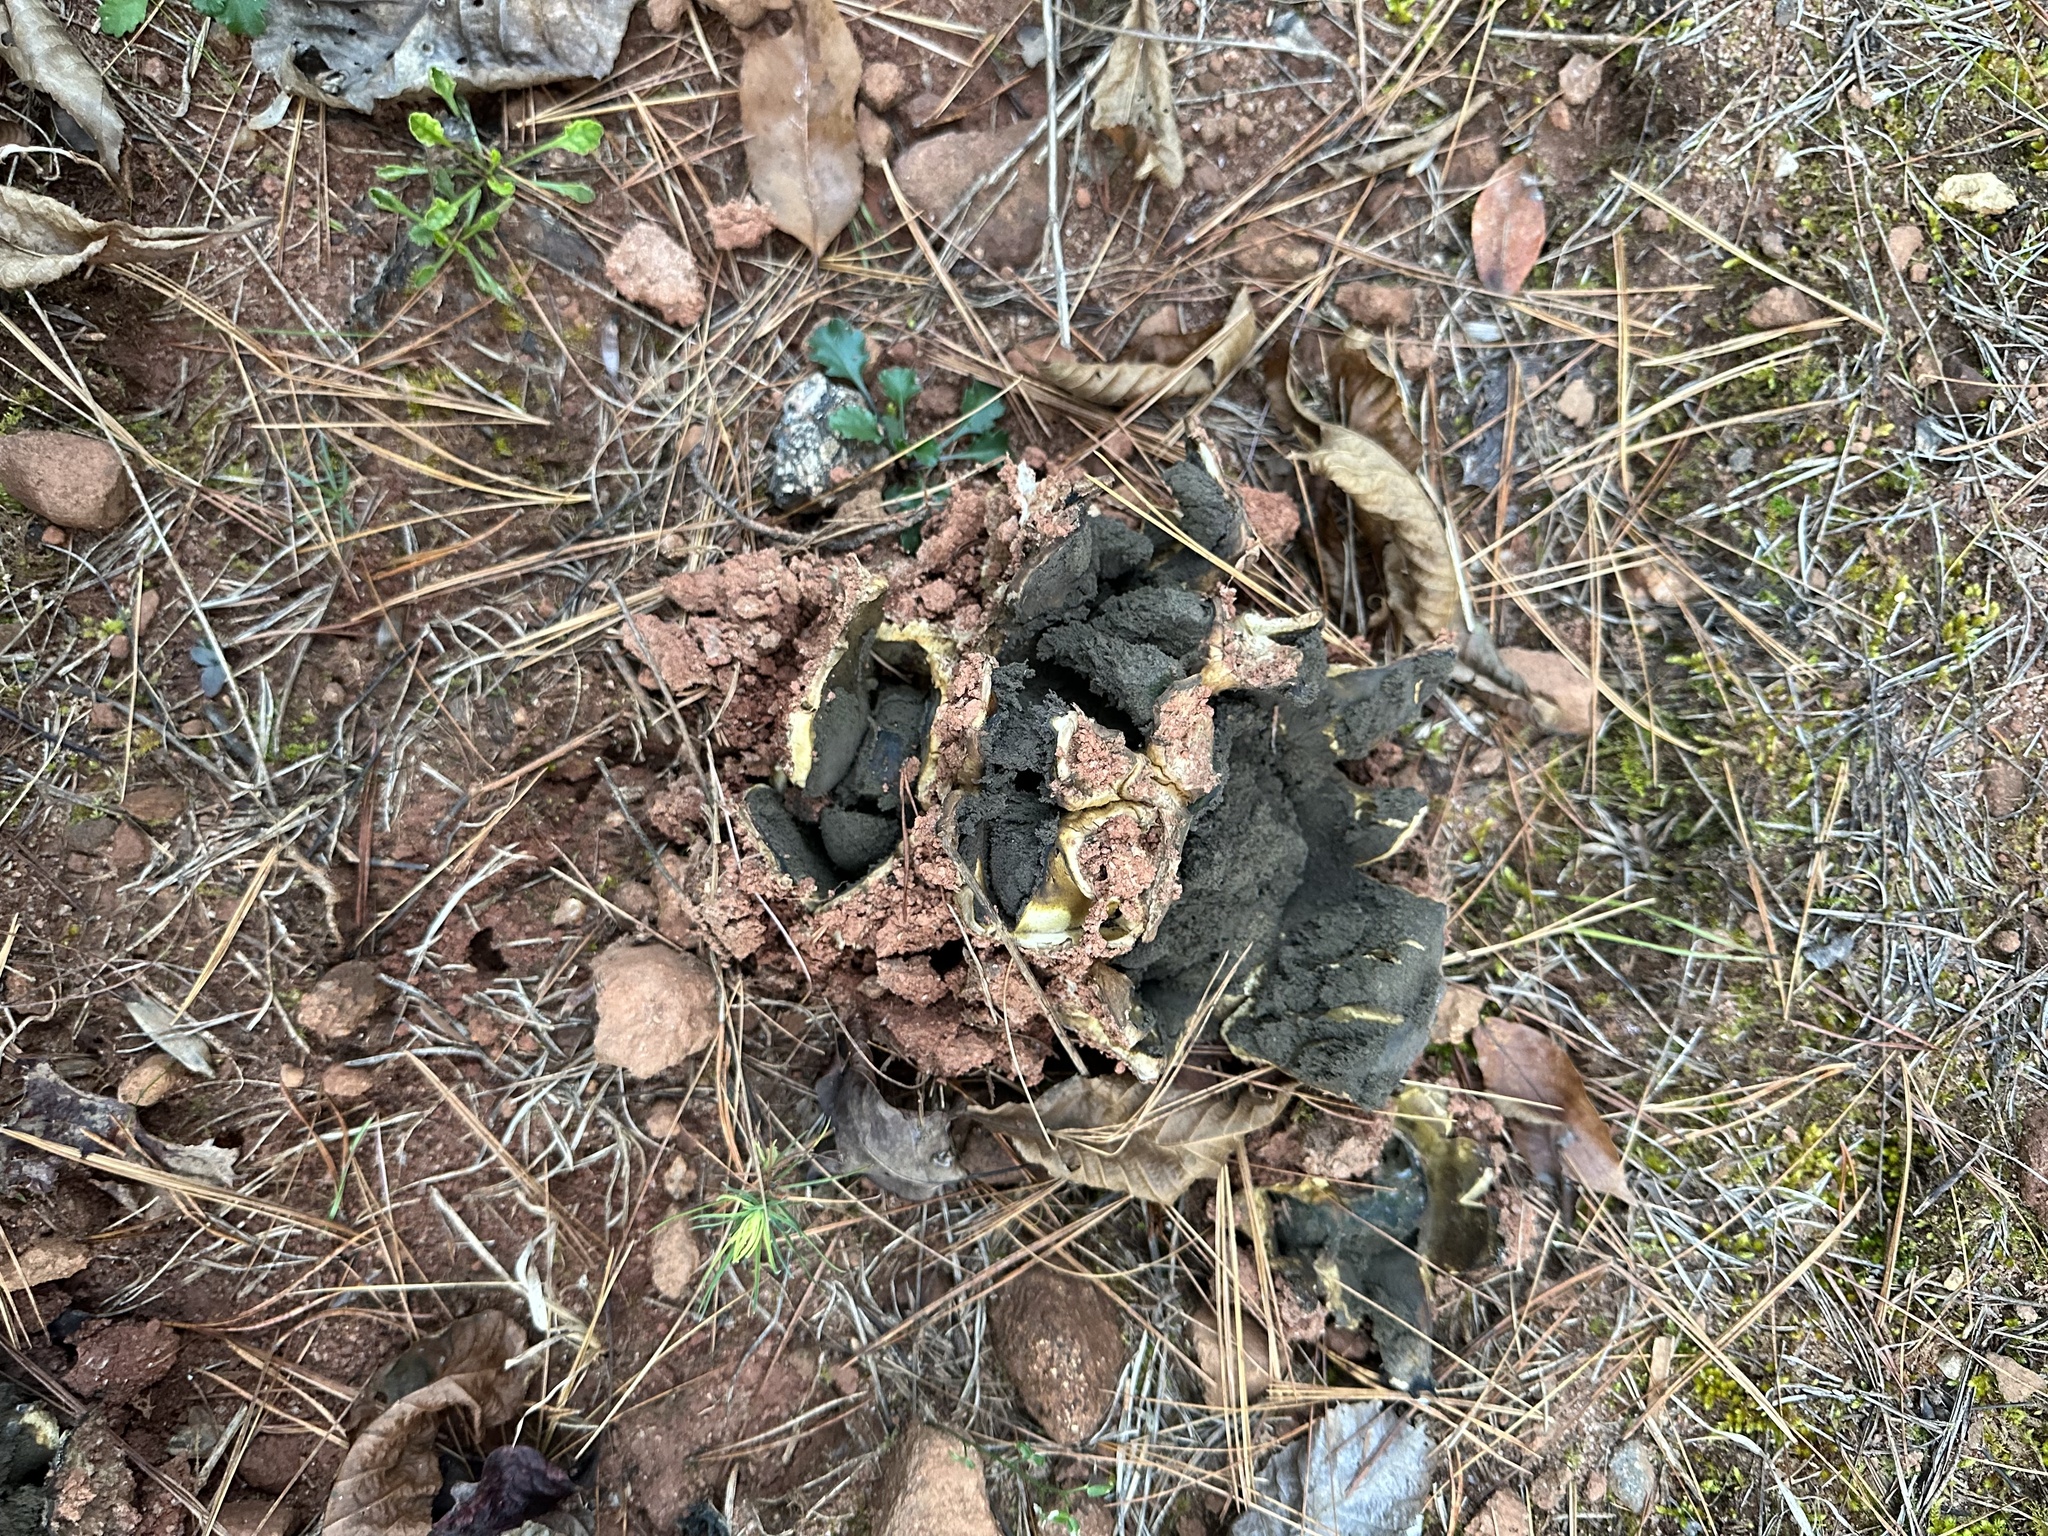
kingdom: Fungi
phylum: Basidiomycota
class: Agaricomycetes
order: Boletales
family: Sclerodermataceae
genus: Scleroderma
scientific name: Scleroderma polyrhizum
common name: Many-rooted earthball
